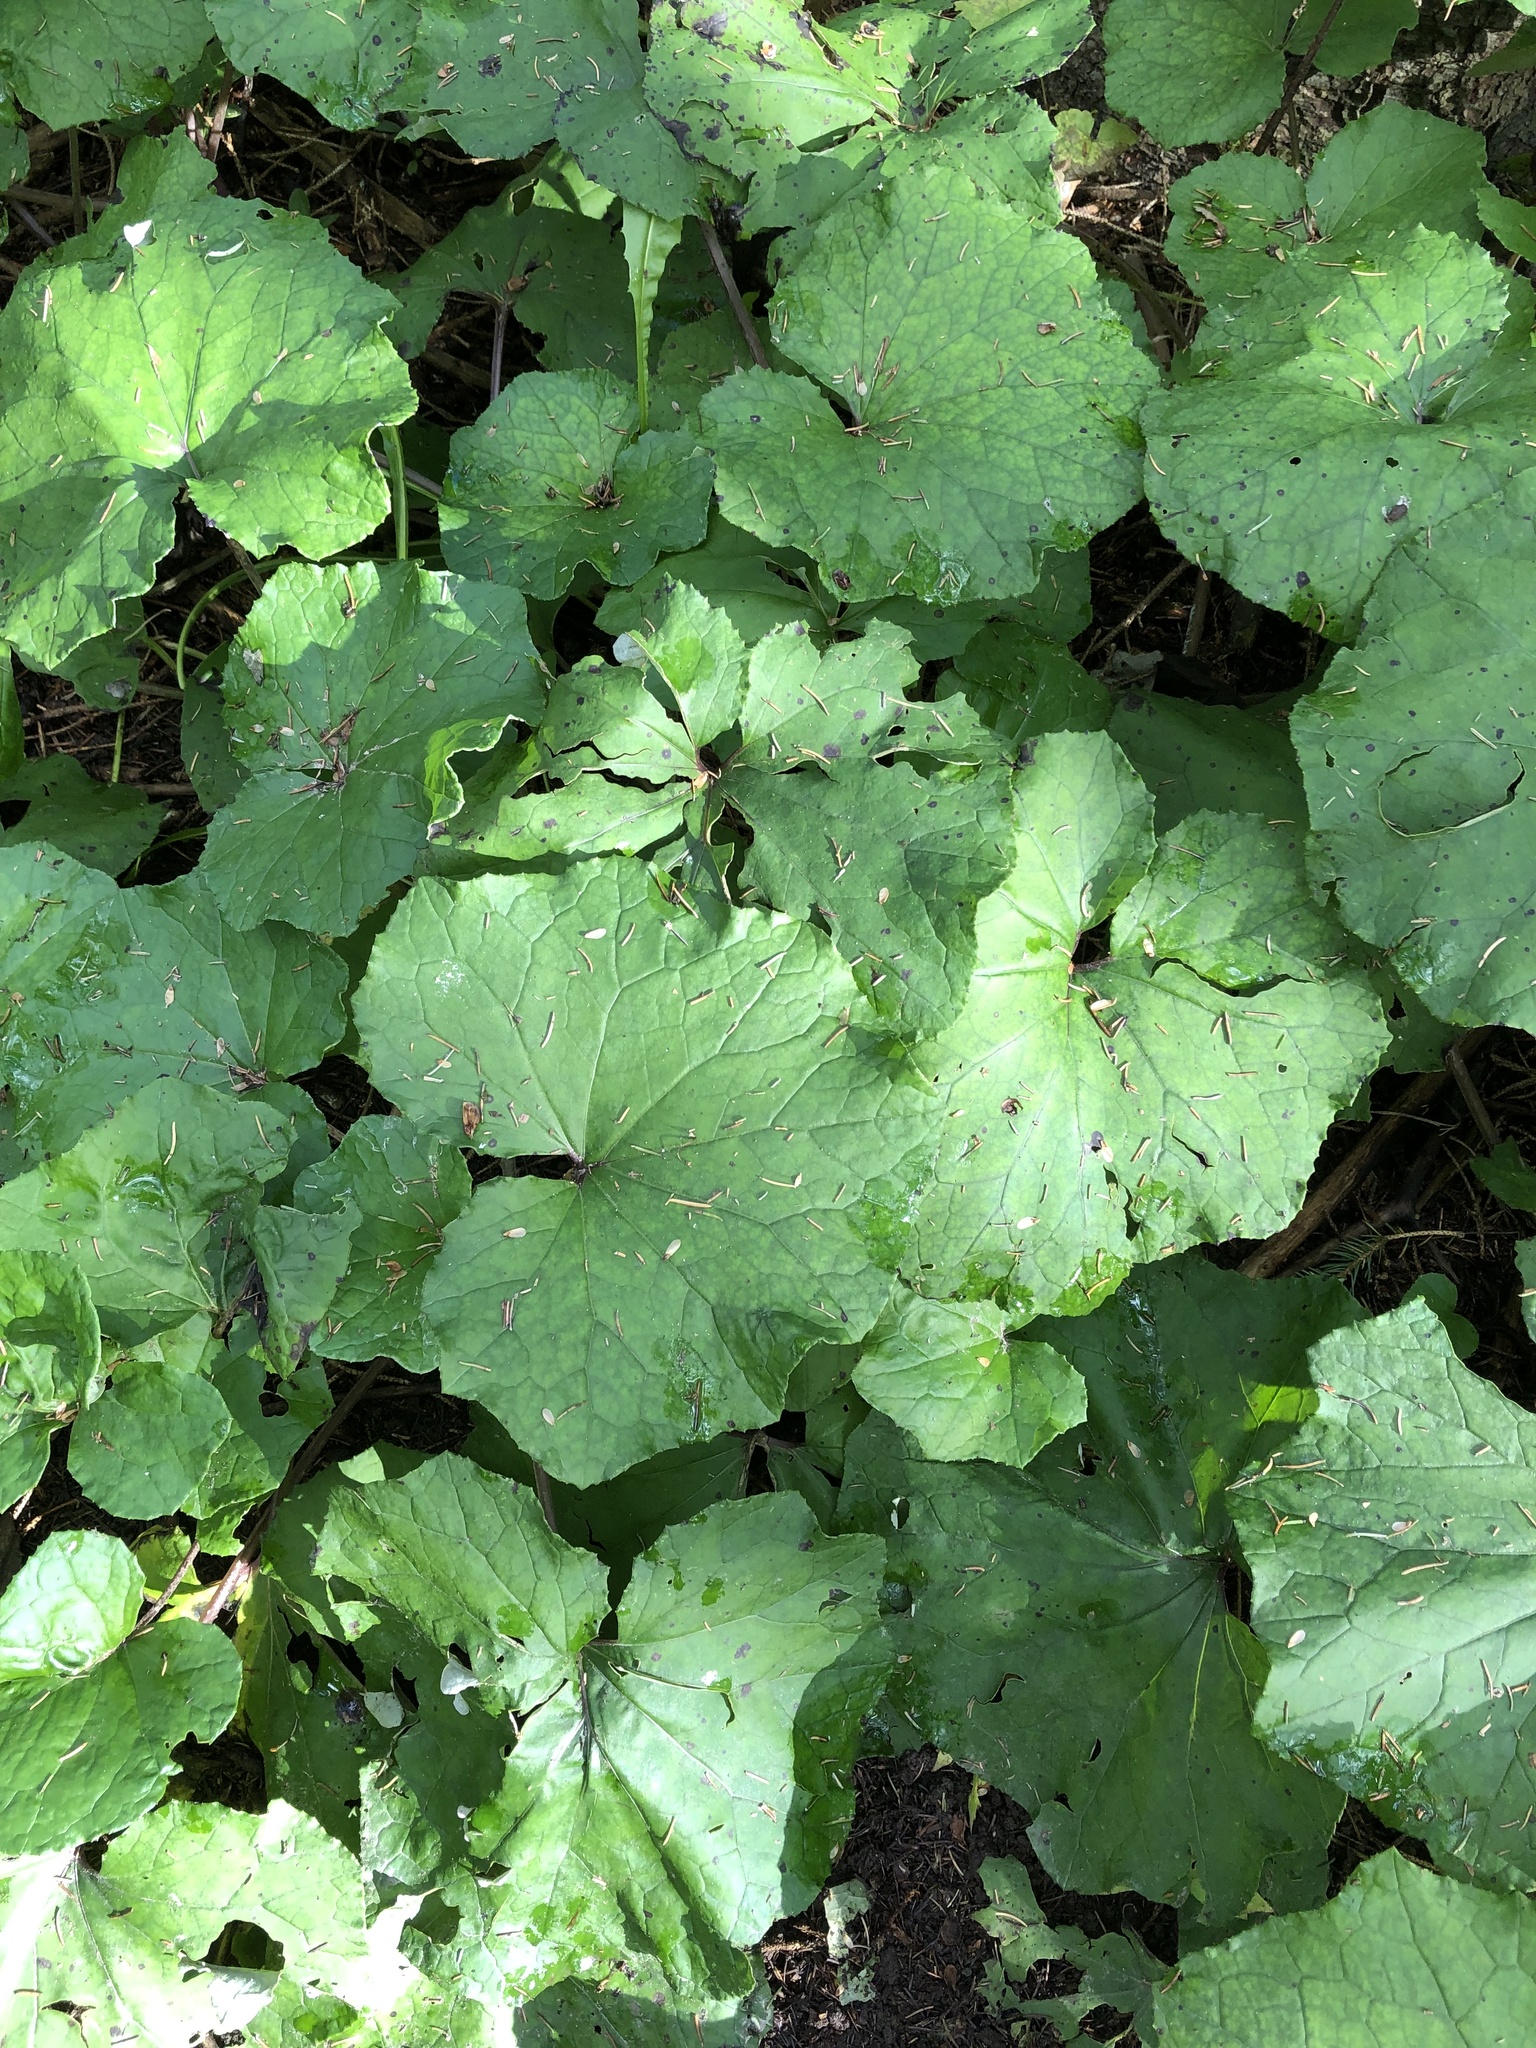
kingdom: Plantae
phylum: Tracheophyta
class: Magnoliopsida
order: Asterales
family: Asteraceae
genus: Tussilago
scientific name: Tussilago farfara
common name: Coltsfoot
